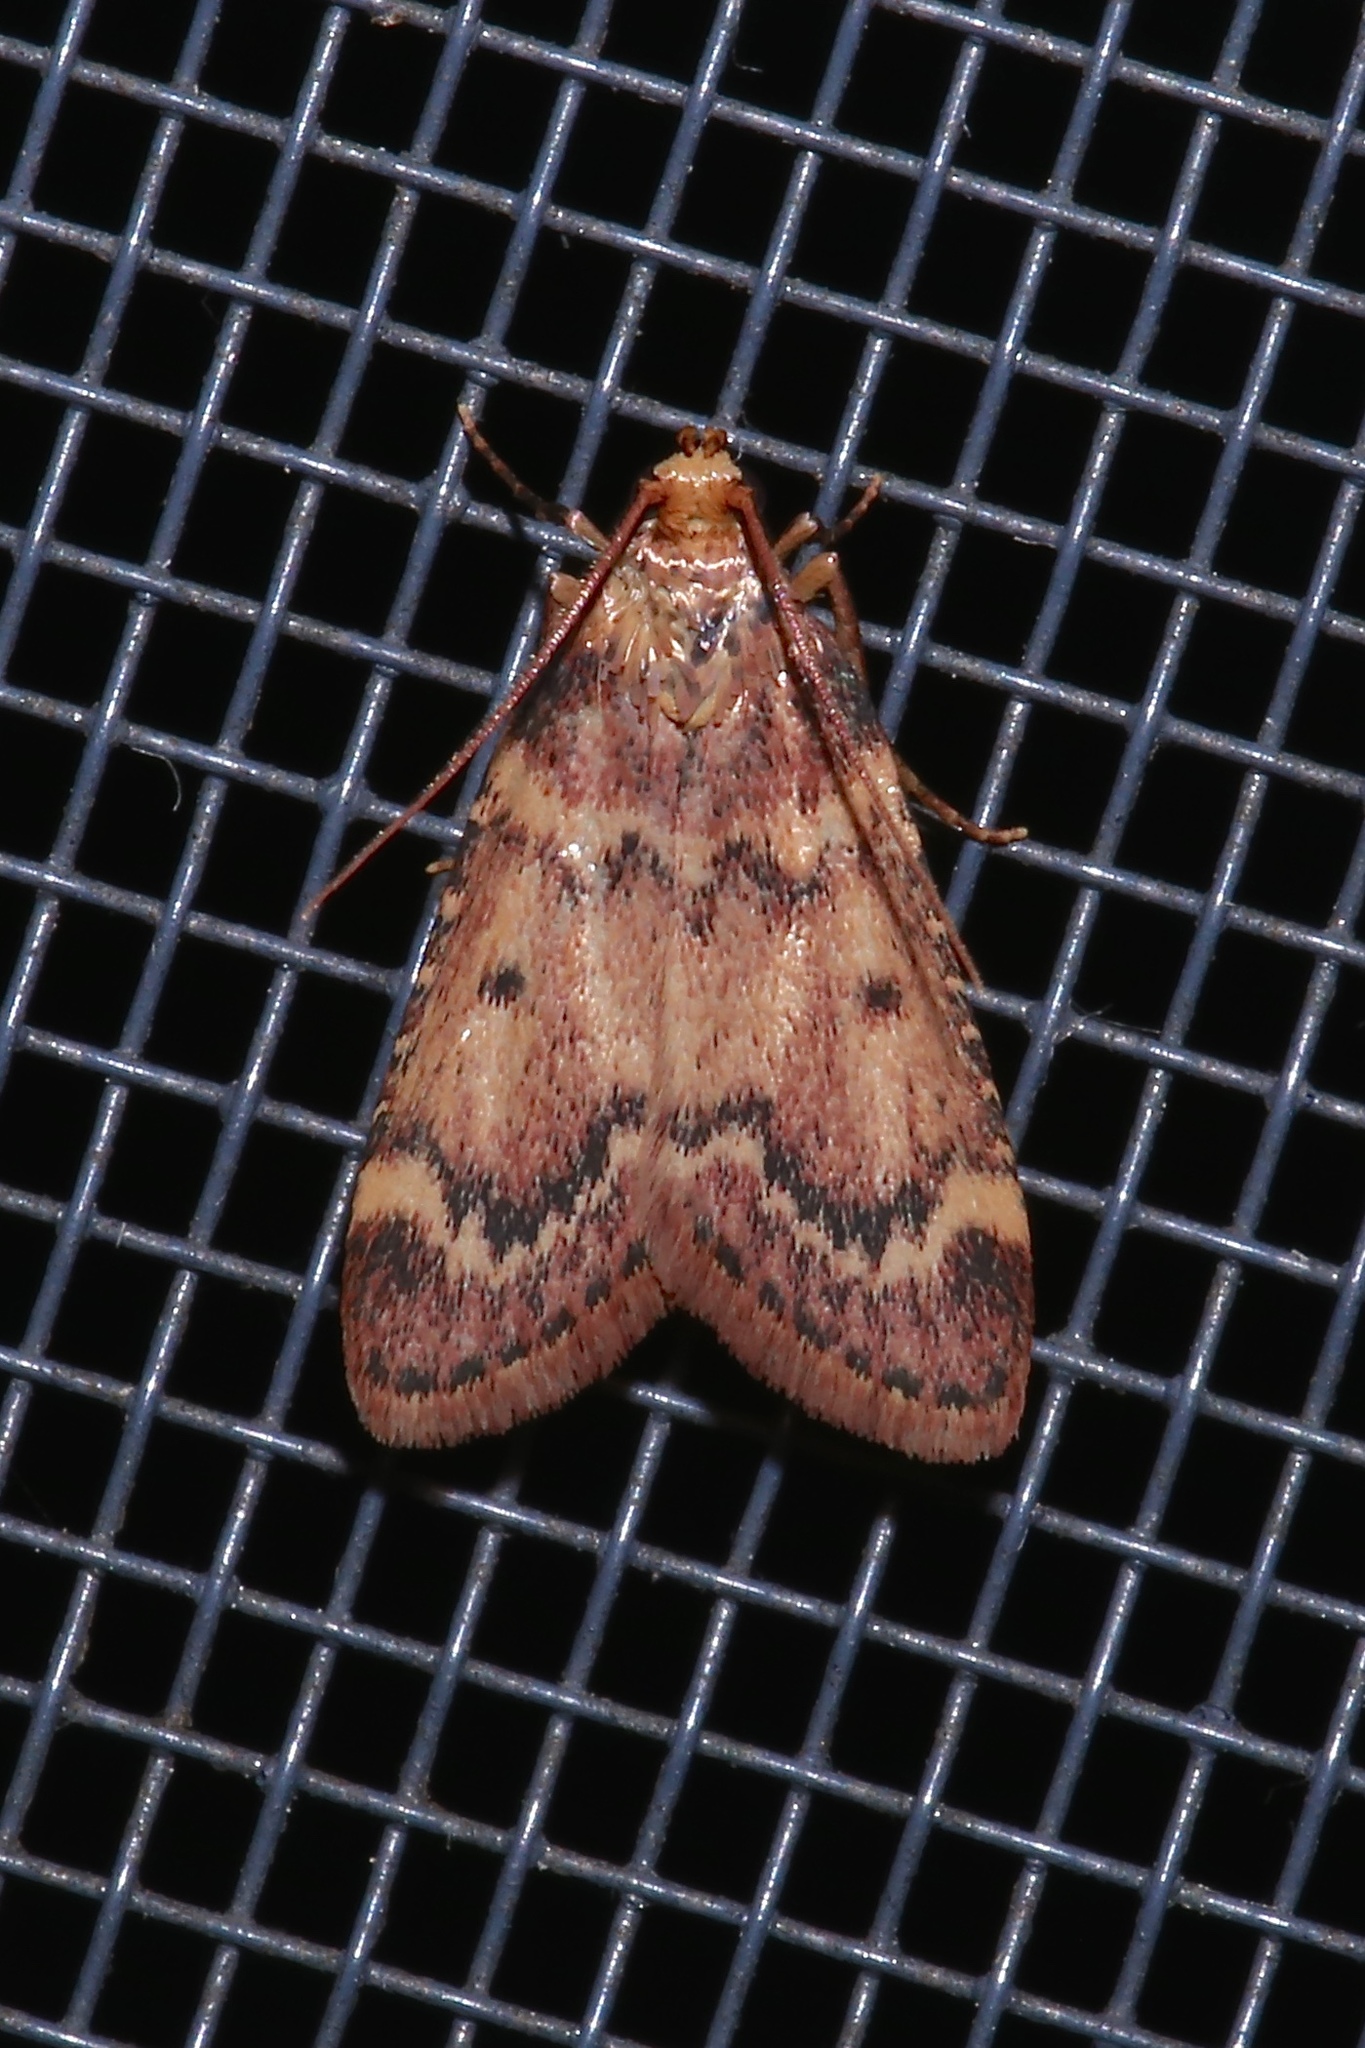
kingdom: Animalia
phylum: Arthropoda
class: Insecta
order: Lepidoptera
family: Pyralidae
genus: Aglossa
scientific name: Aglossa disciferalis
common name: Pink-masked pyralid moth
